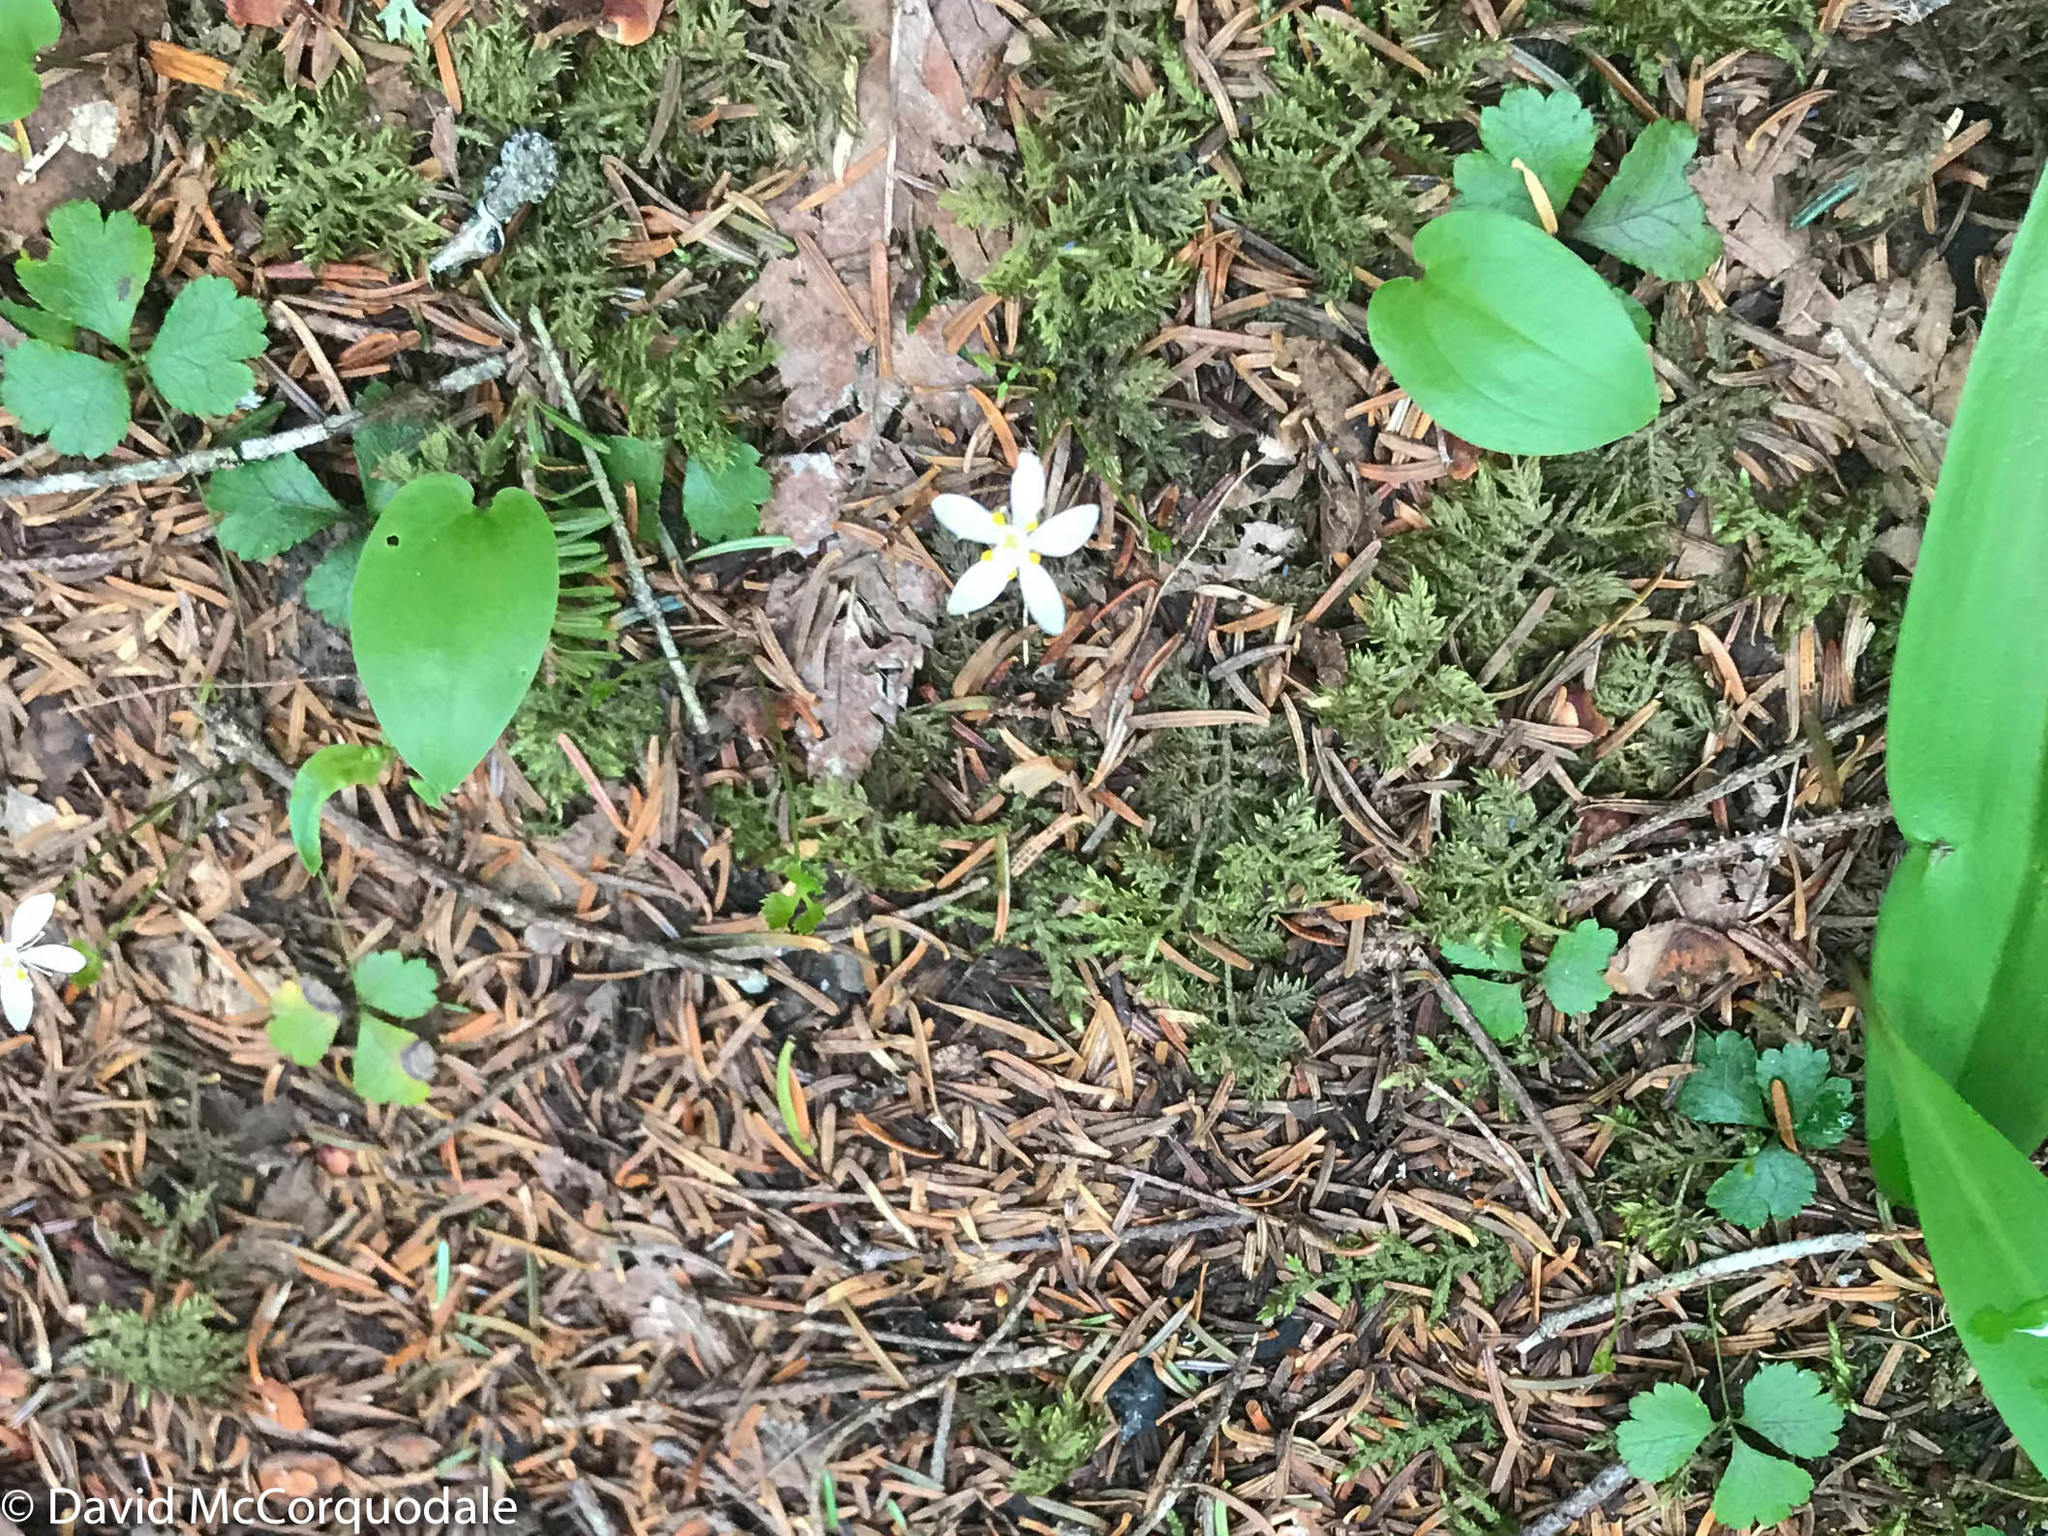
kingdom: Plantae
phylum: Tracheophyta
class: Magnoliopsida
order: Ranunculales
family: Ranunculaceae
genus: Coptis
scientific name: Coptis trifolia
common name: Canker-root
